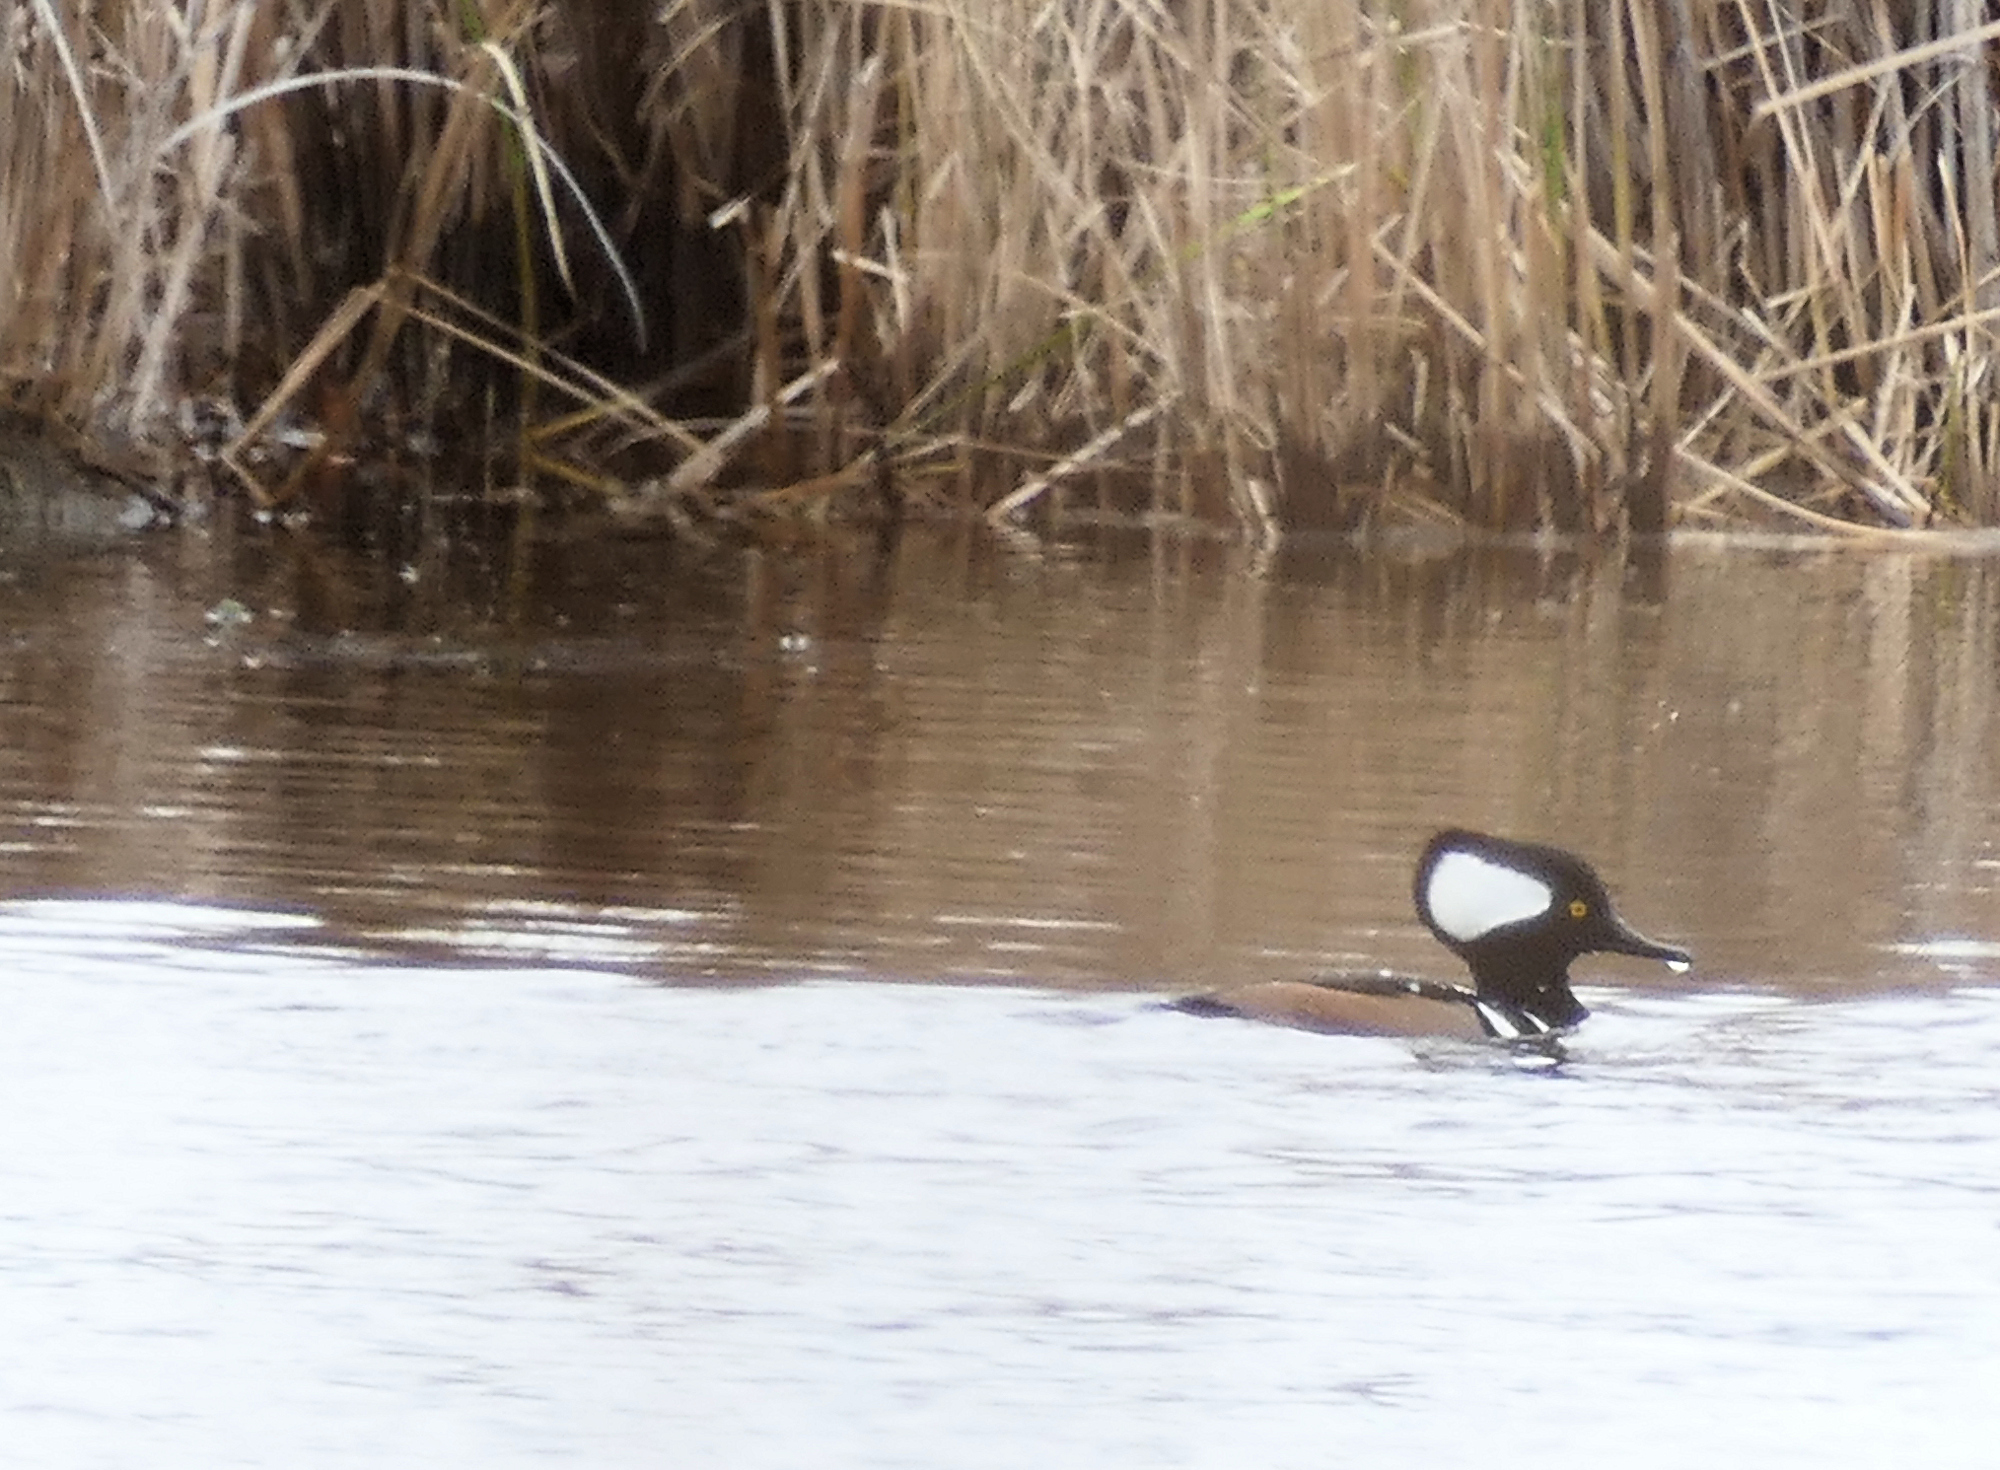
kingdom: Animalia
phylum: Chordata
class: Aves
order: Anseriformes
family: Anatidae
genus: Lophodytes
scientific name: Lophodytes cucullatus
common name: Hooded merganser
